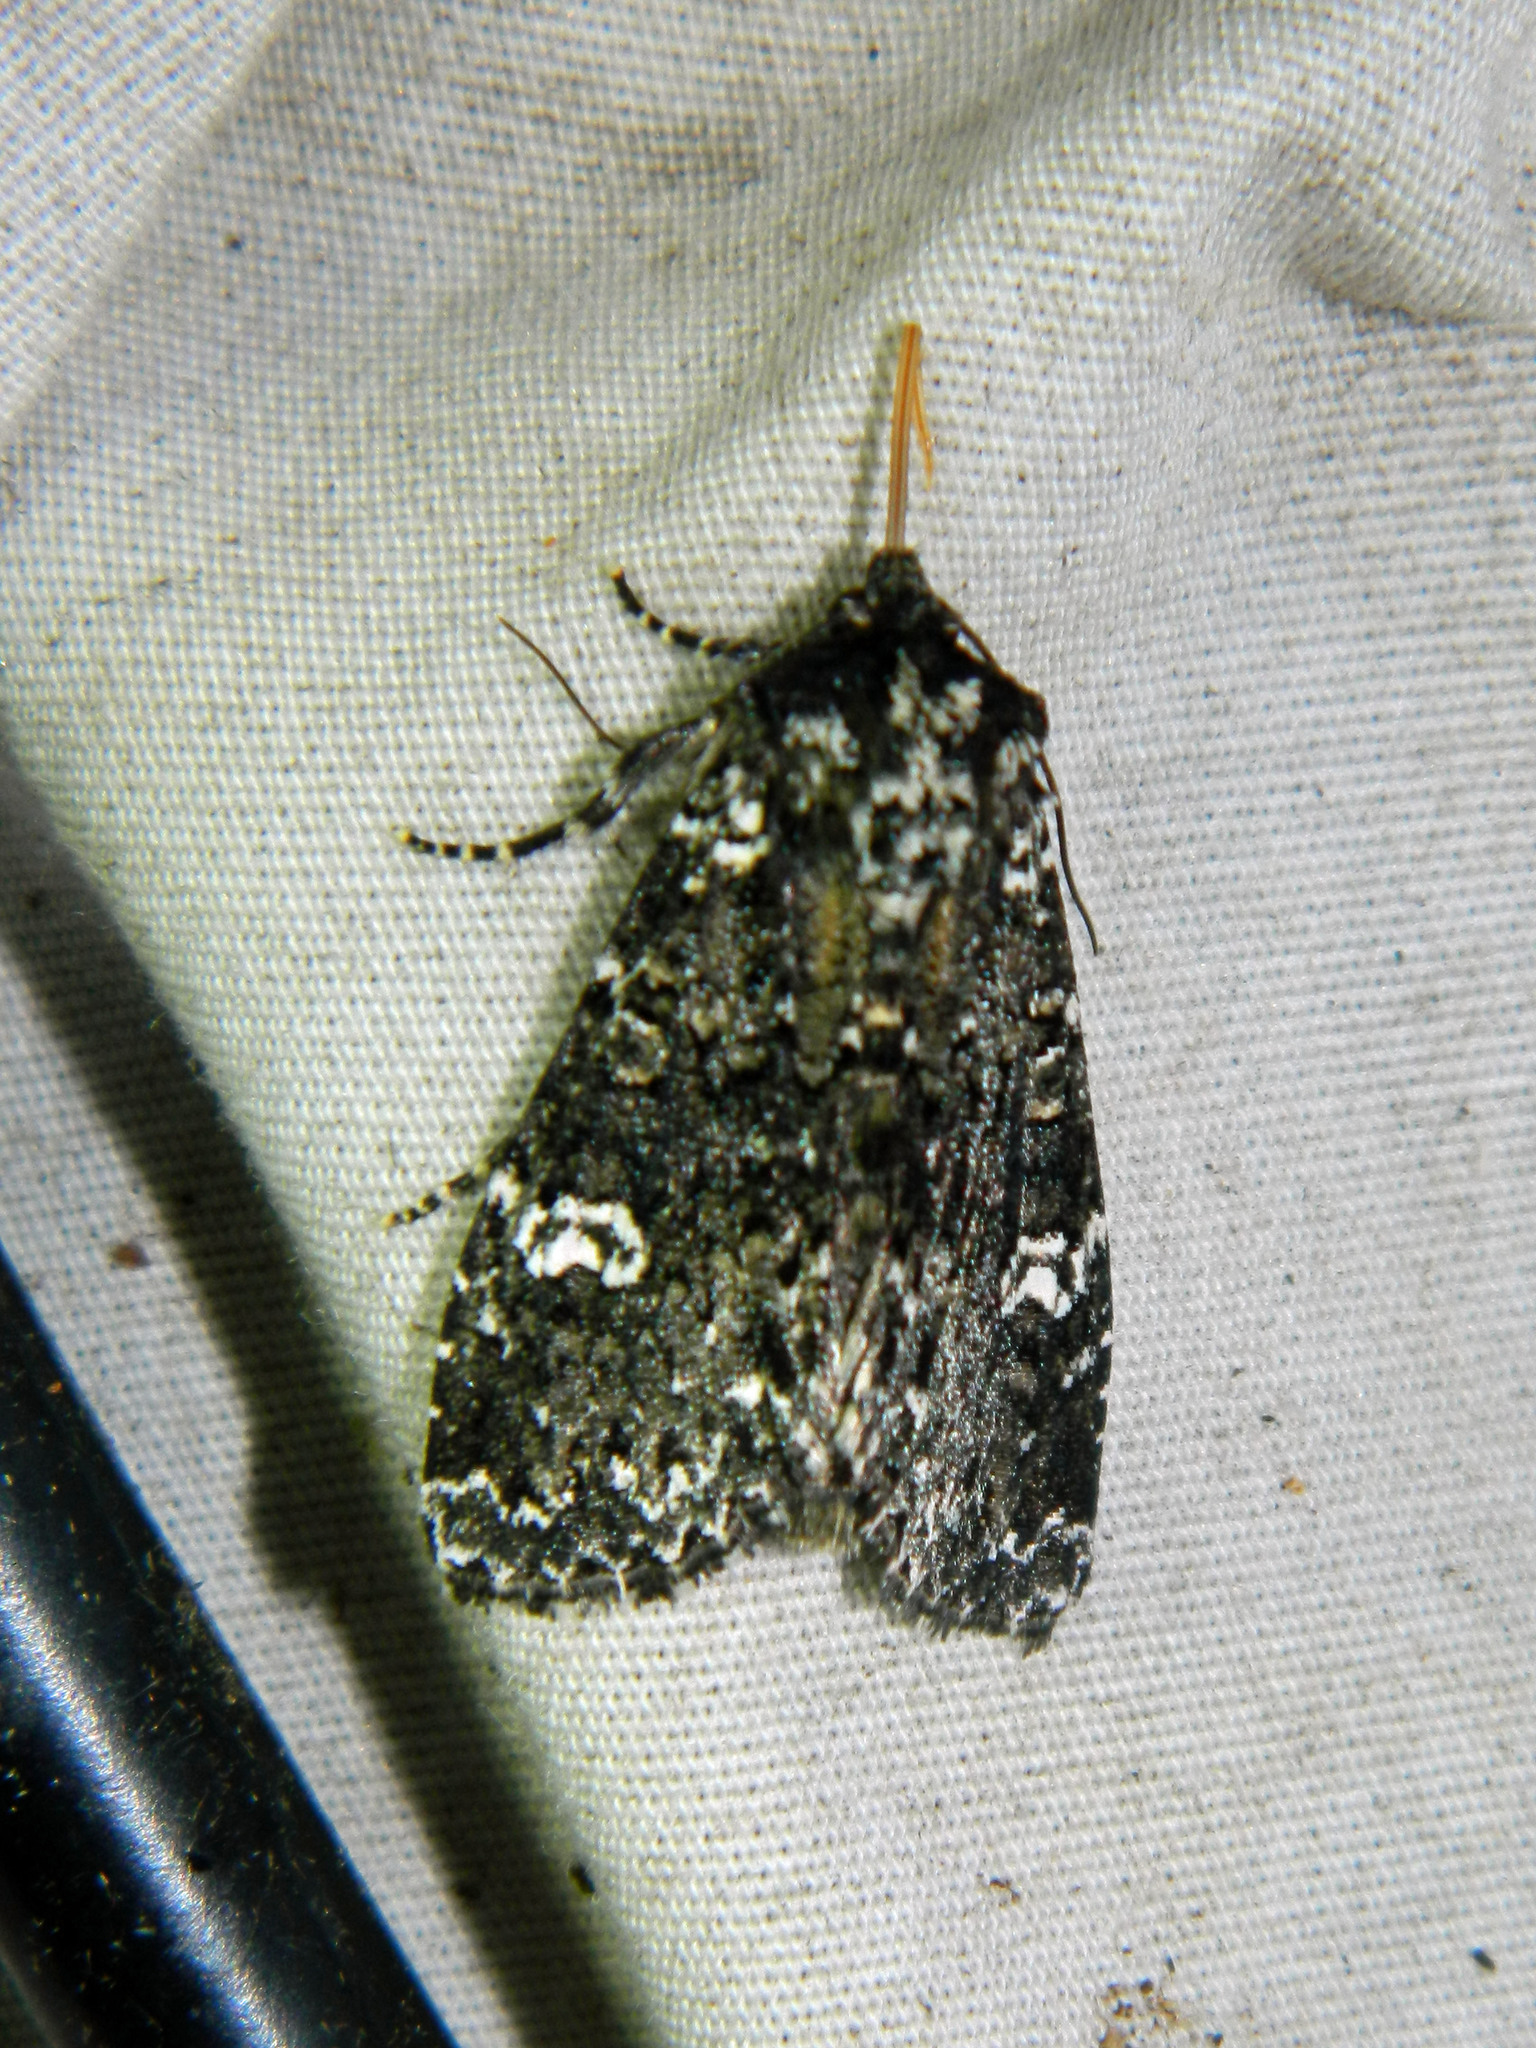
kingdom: Animalia
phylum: Arthropoda
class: Insecta
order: Lepidoptera
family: Noctuidae
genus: Melanchra
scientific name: Melanchra adjuncta
